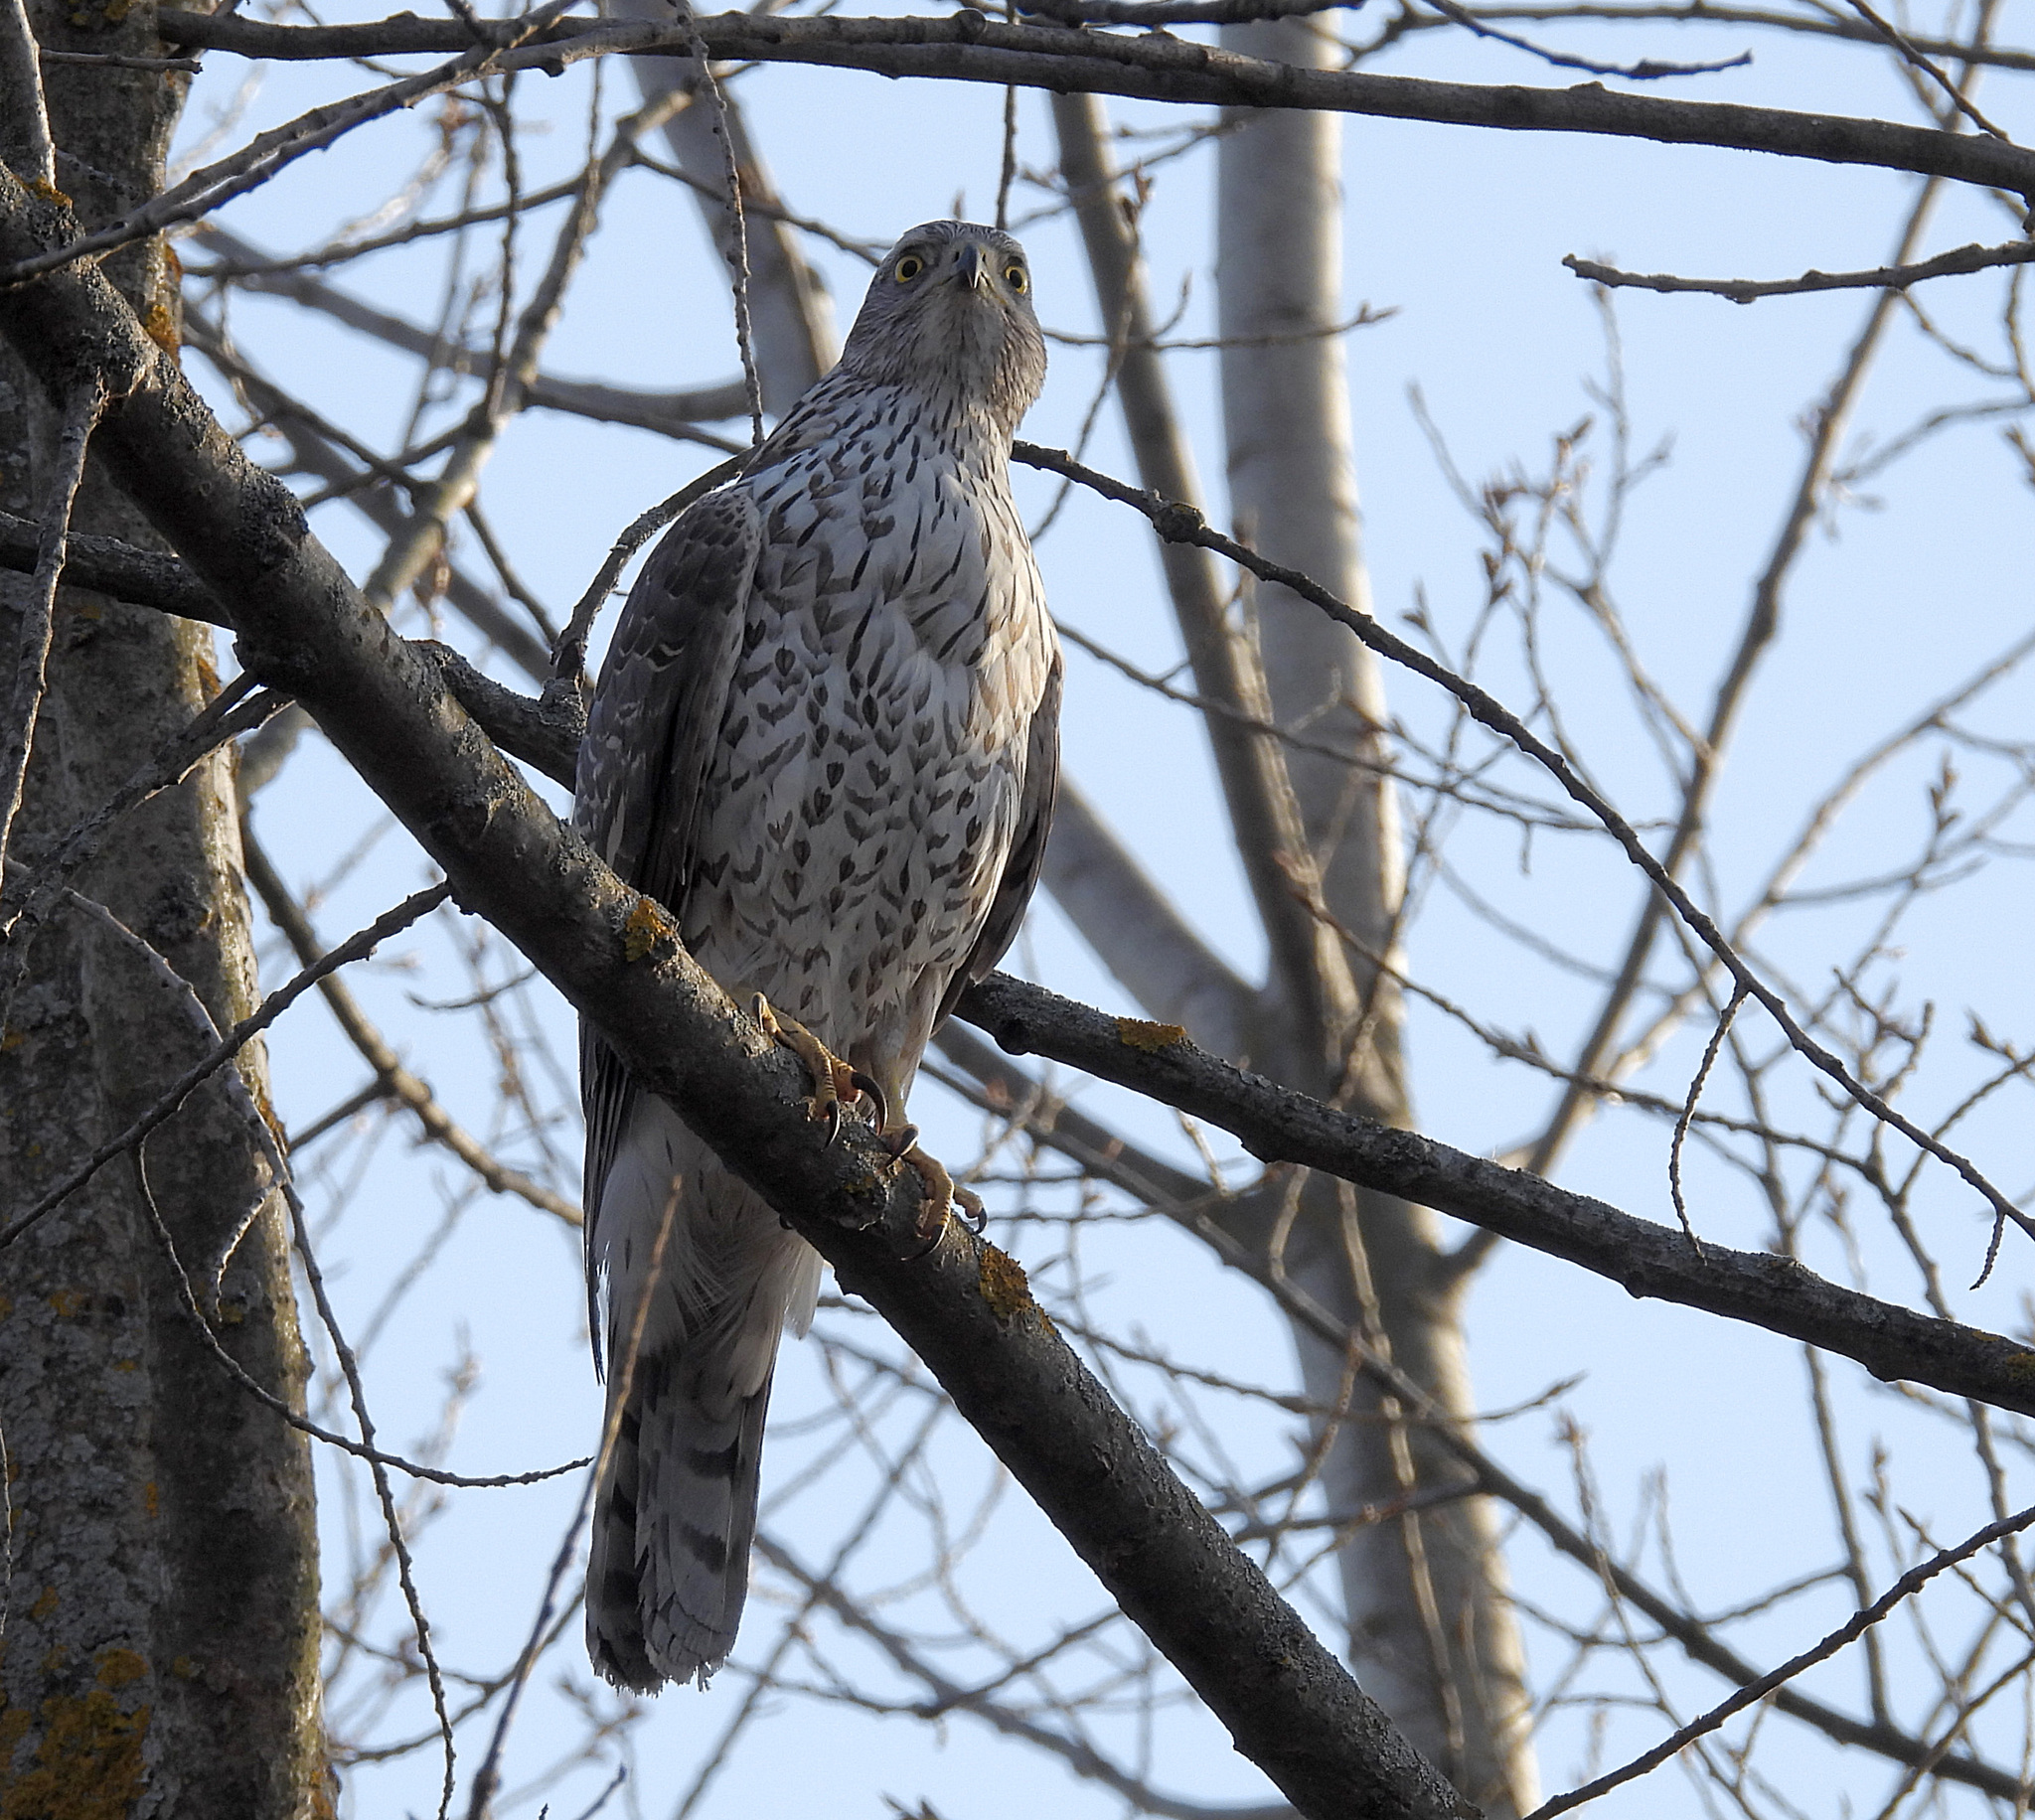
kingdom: Animalia
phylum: Chordata
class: Aves
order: Accipitriformes
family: Accipitridae
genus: Accipiter
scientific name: Accipiter gentilis
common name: Northern goshawk
